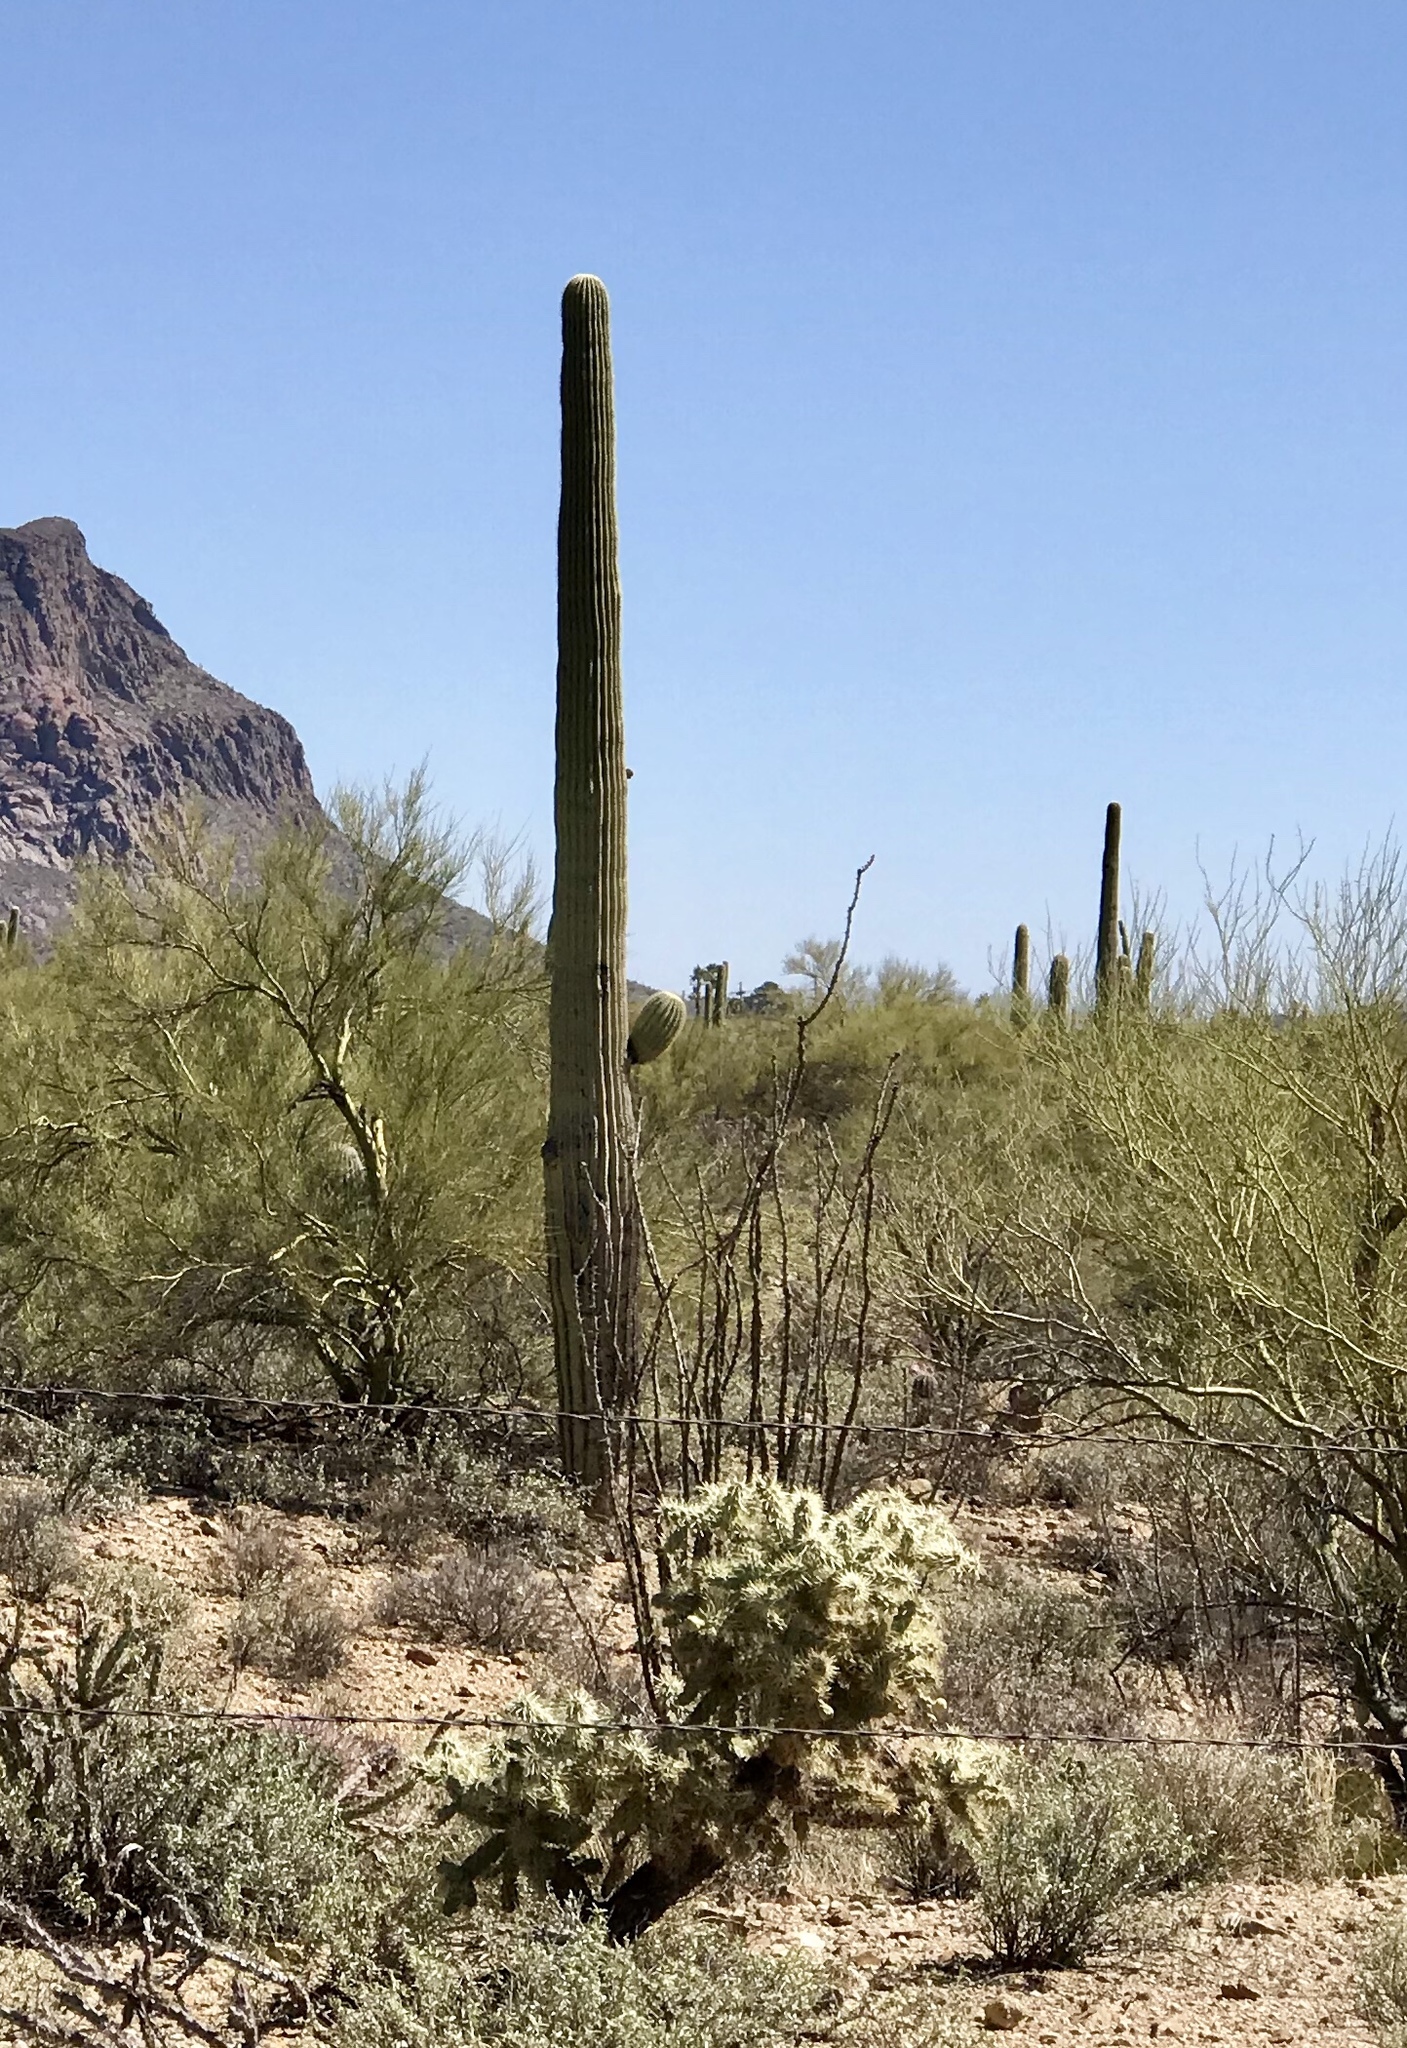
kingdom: Plantae
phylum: Tracheophyta
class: Magnoliopsida
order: Caryophyllales
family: Cactaceae
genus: Carnegiea
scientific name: Carnegiea gigantea
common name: Saguaro
